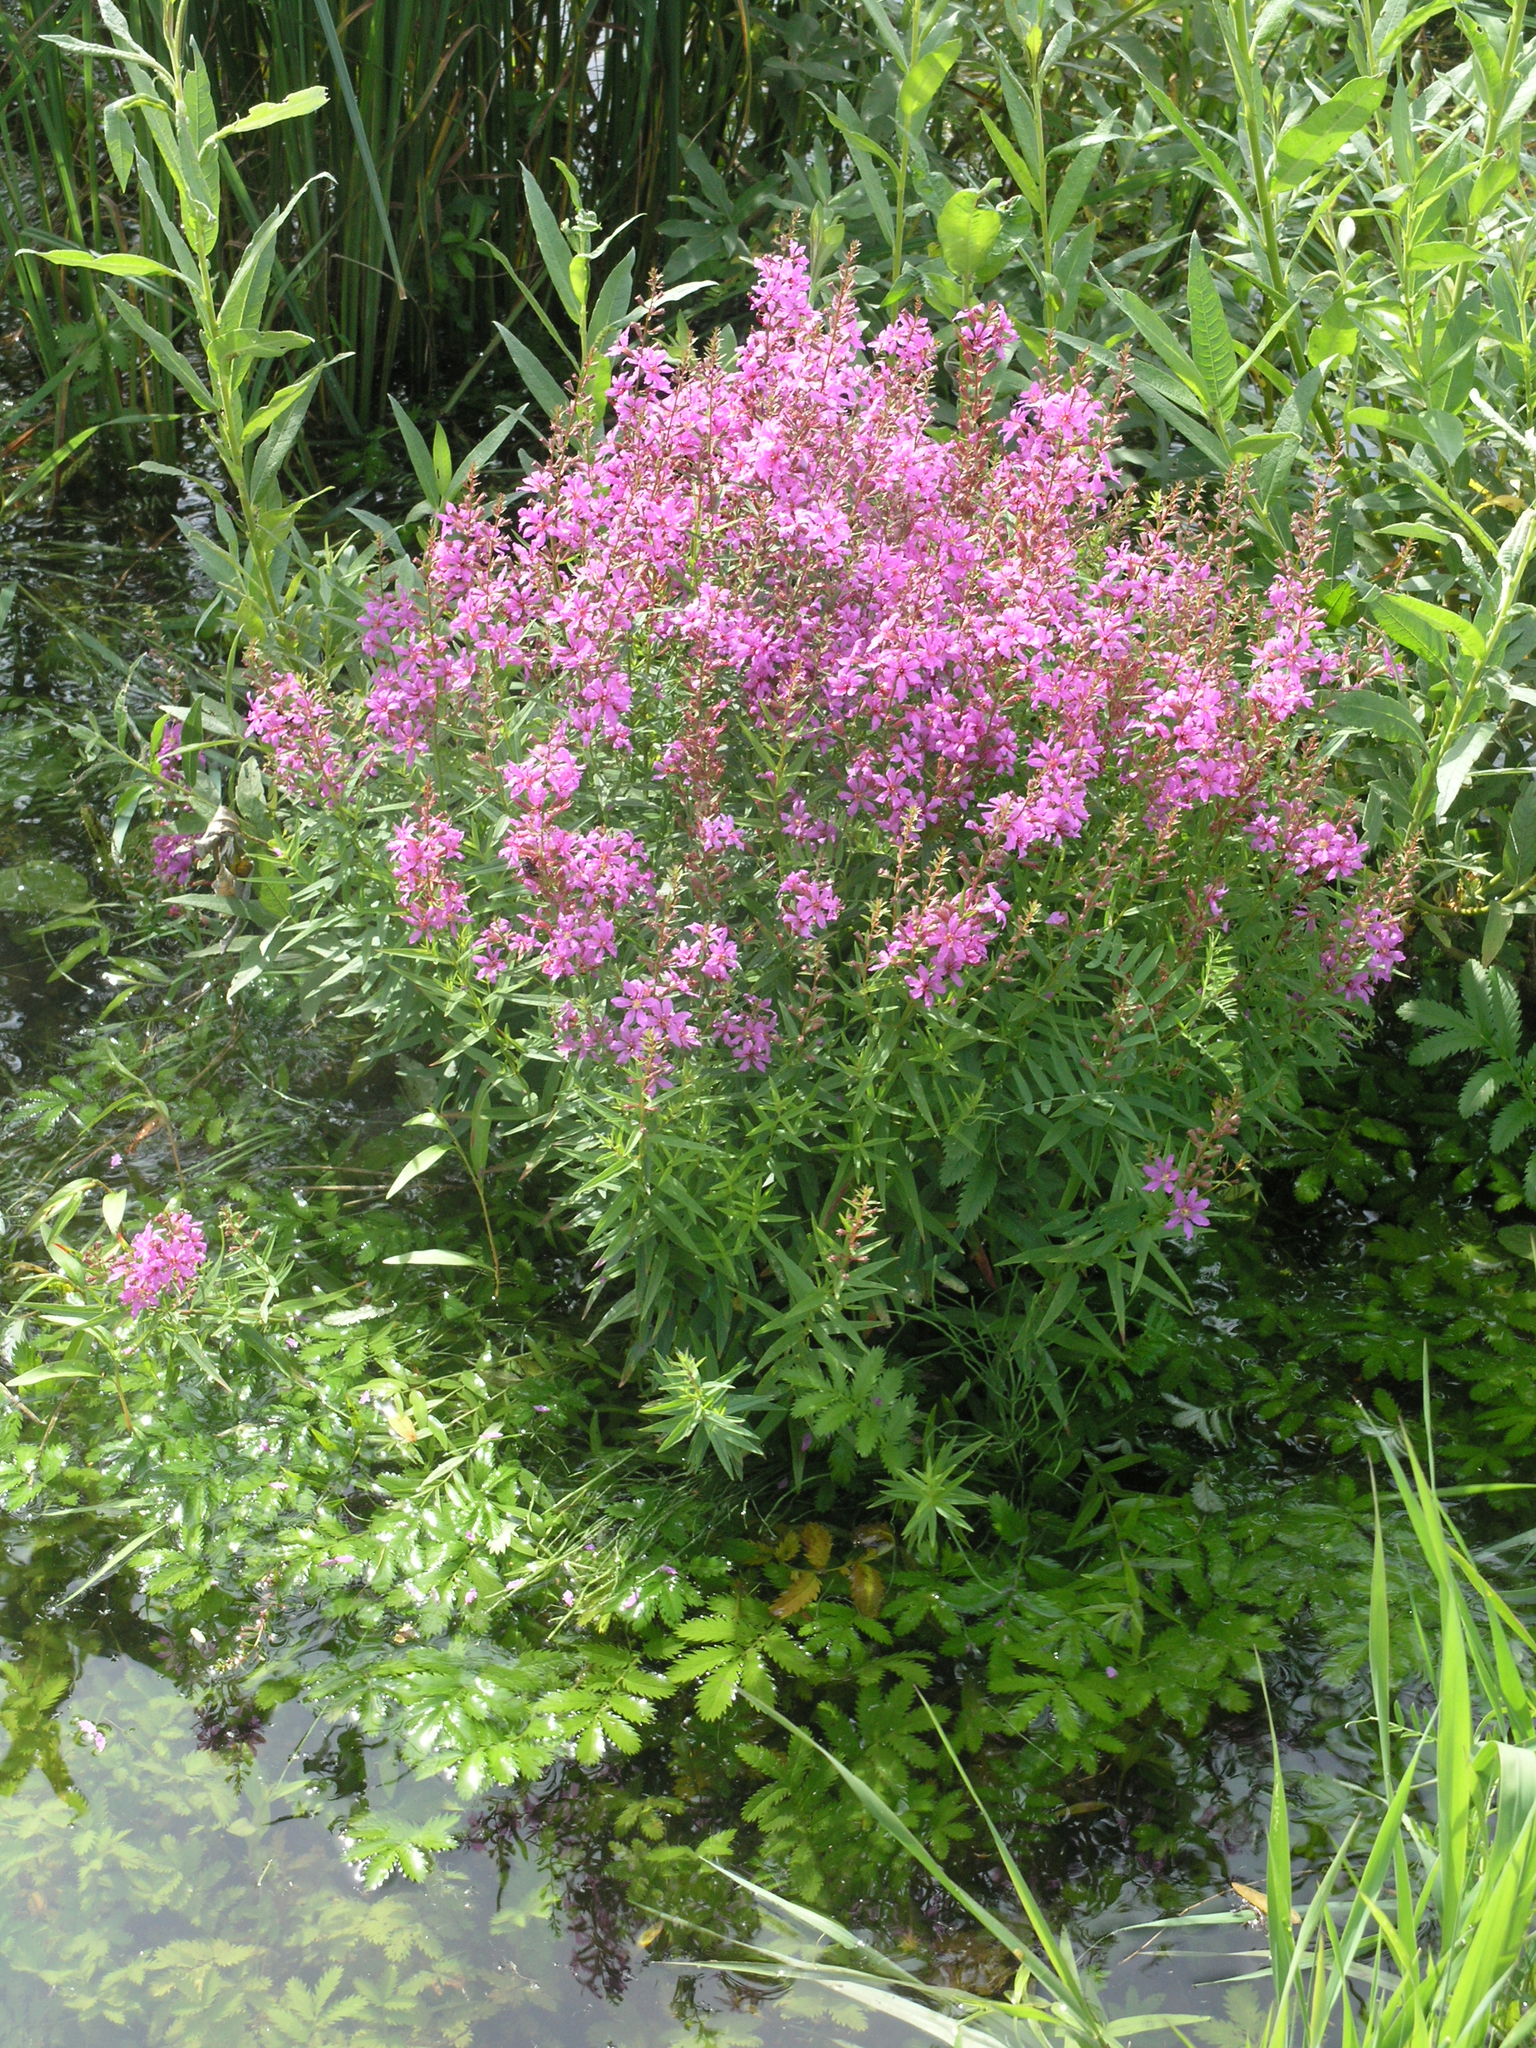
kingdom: Plantae
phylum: Tracheophyta
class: Magnoliopsida
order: Myrtales
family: Lythraceae
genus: Lythrum
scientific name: Lythrum salicaria
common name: Purple loosestrife
